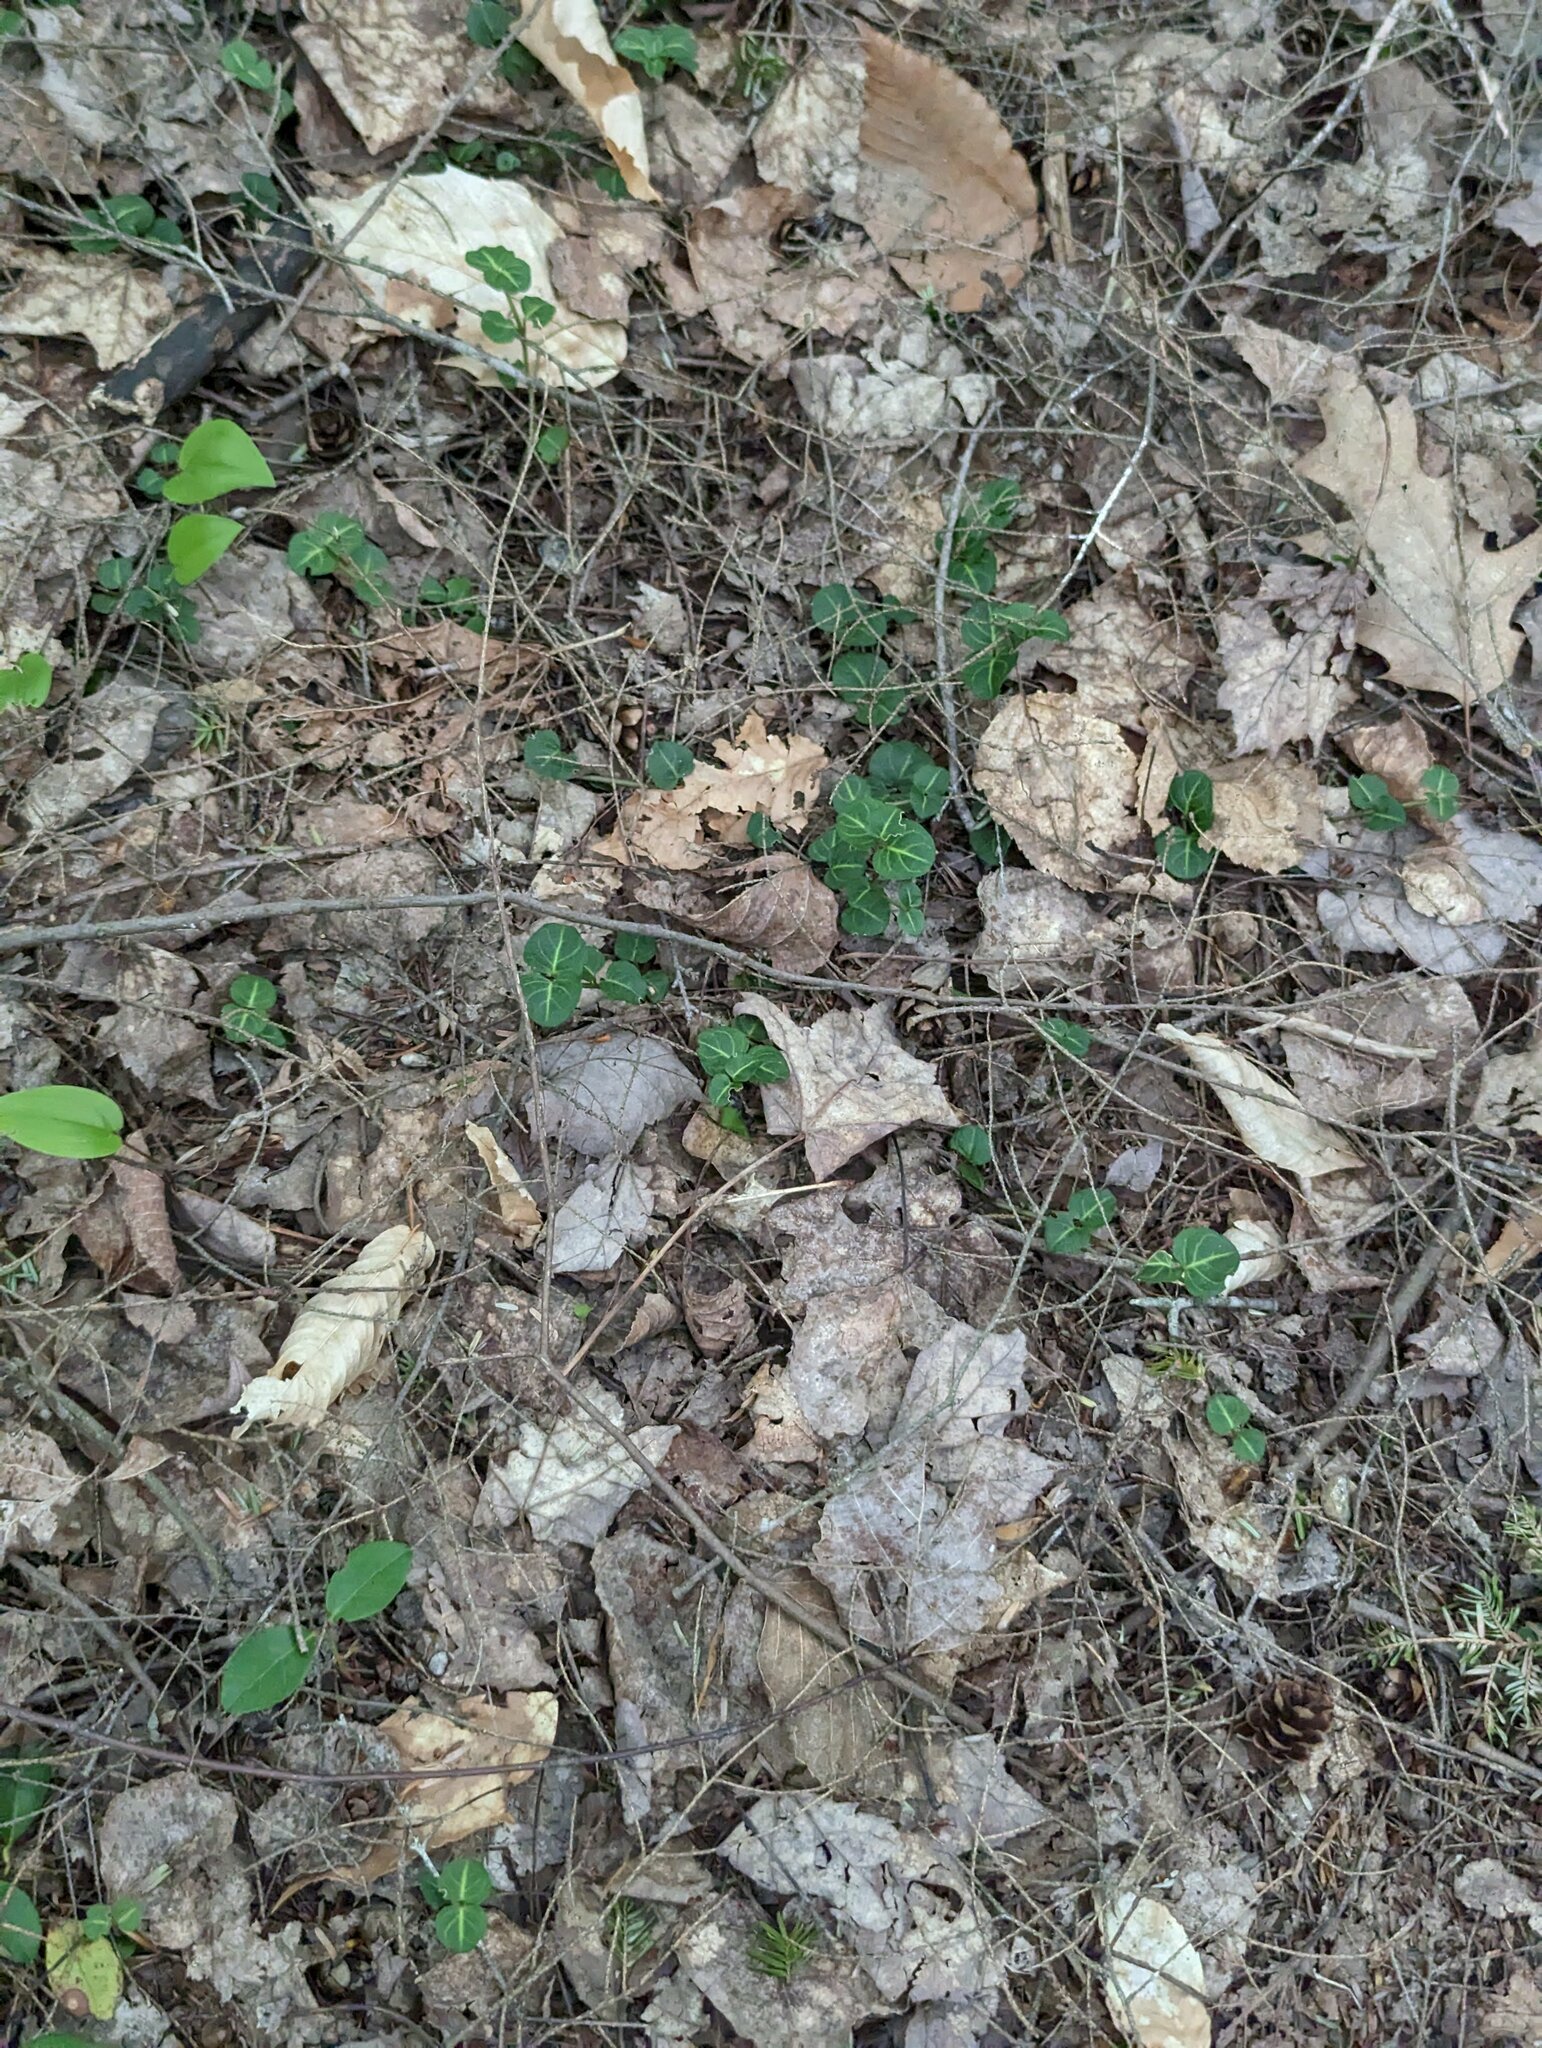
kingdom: Plantae
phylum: Tracheophyta
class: Magnoliopsida
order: Gentianales
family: Rubiaceae
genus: Mitchella
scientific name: Mitchella repens
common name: Partridge-berry
